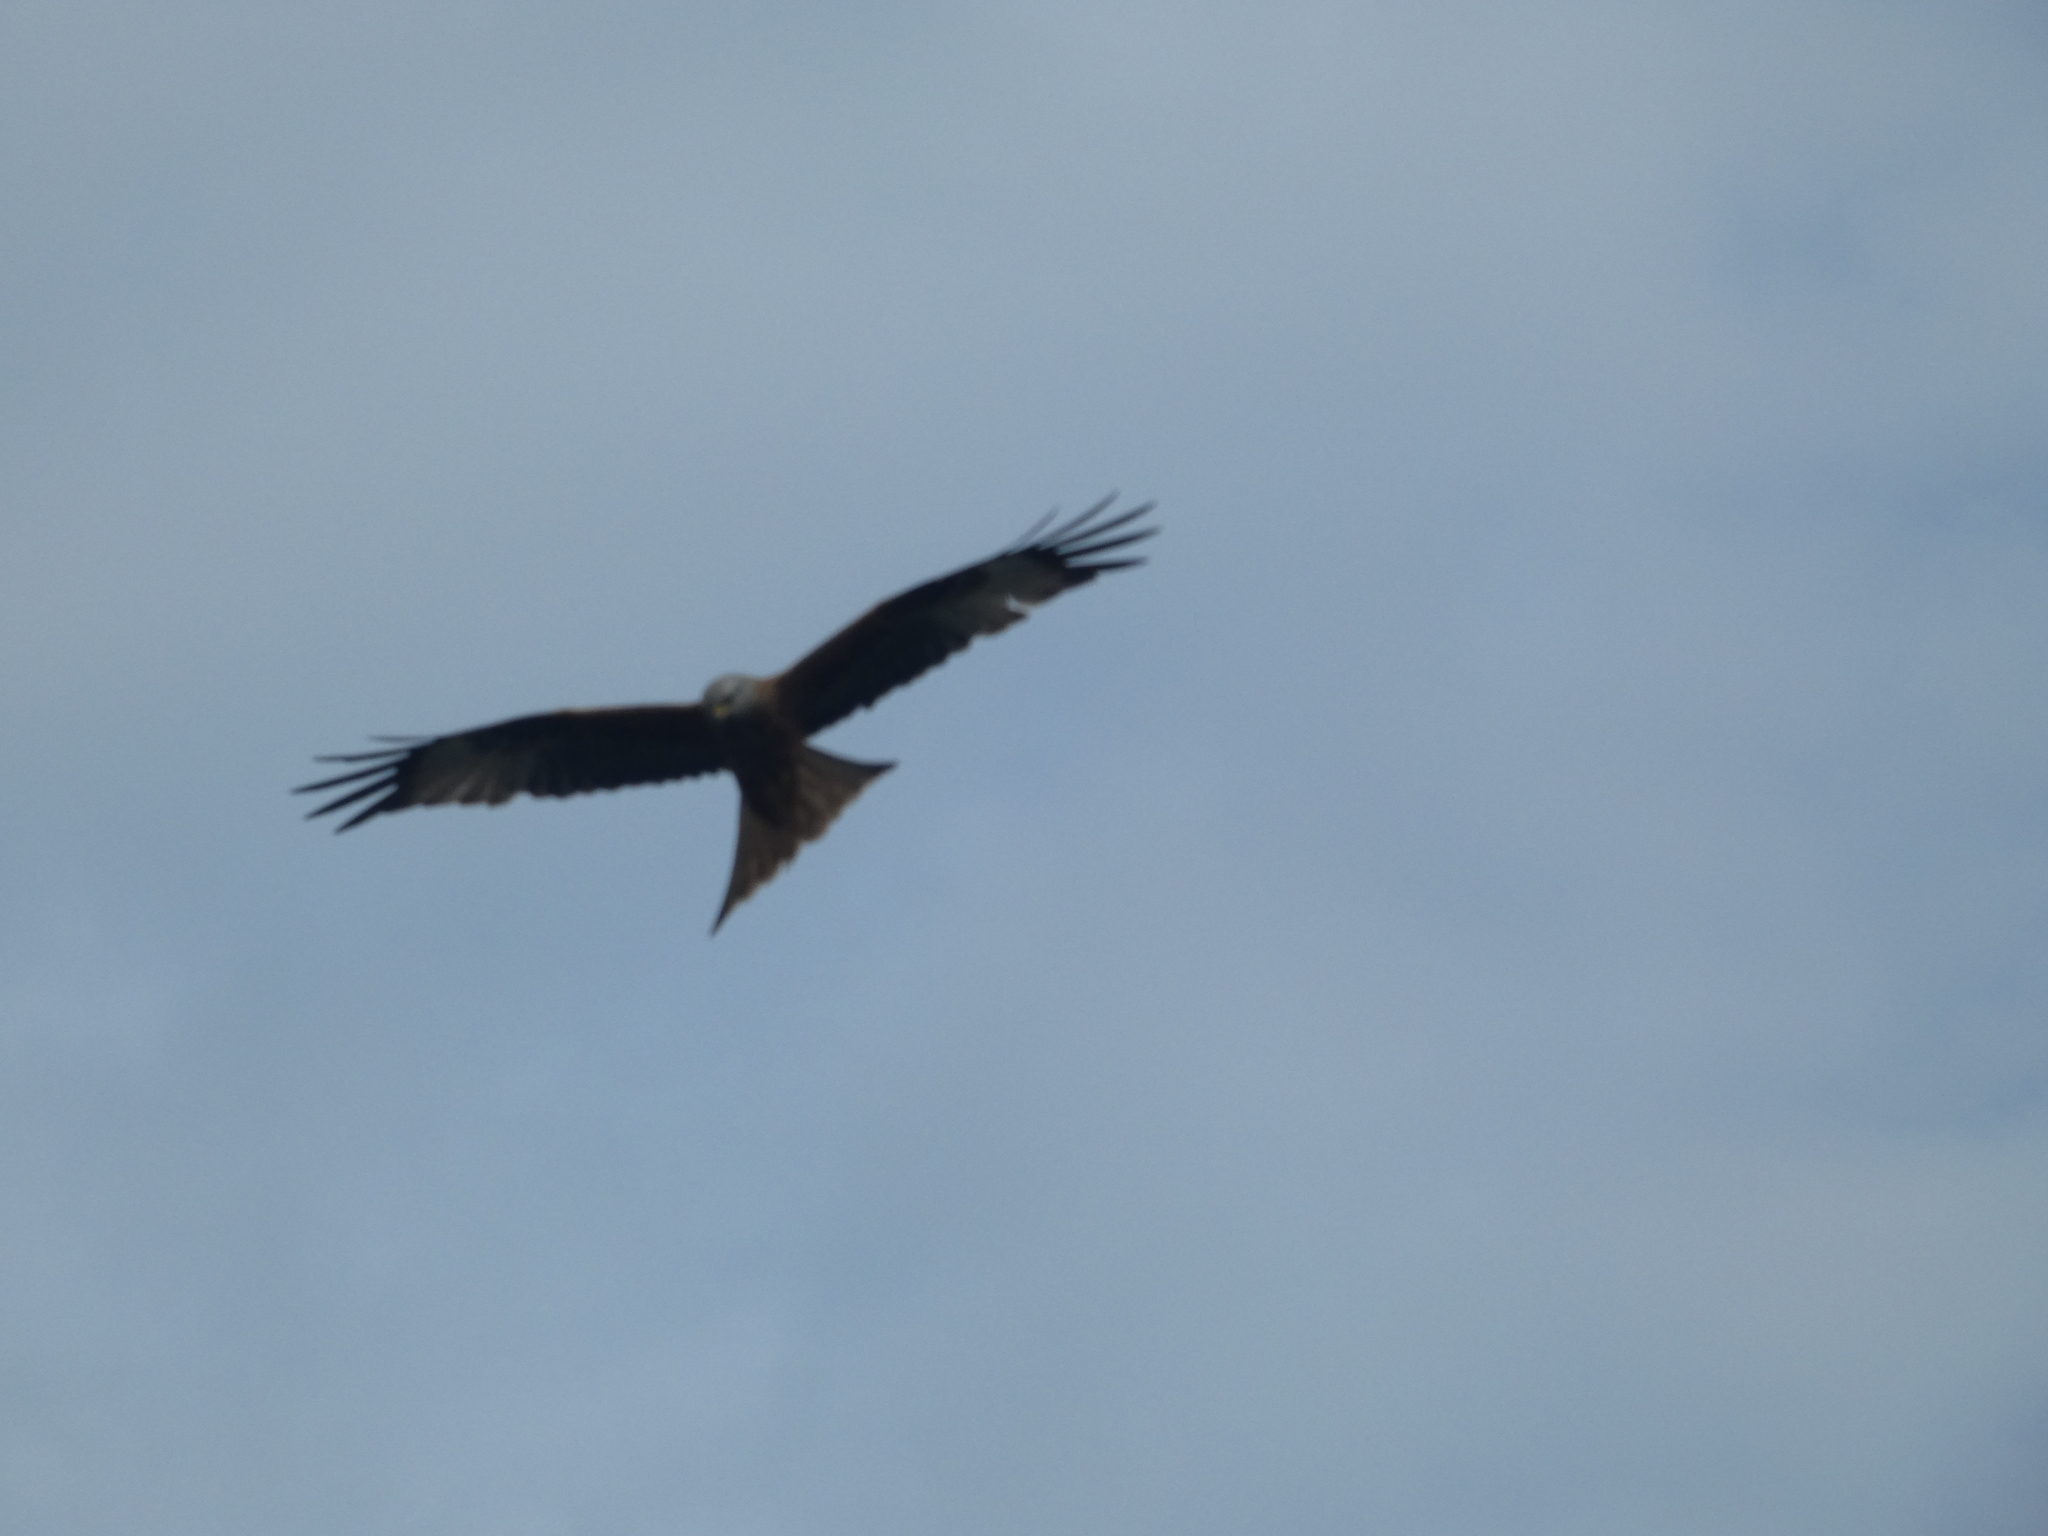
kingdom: Animalia
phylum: Chordata
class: Aves
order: Accipitriformes
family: Accipitridae
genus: Milvus
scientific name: Milvus milvus
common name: Red kite
